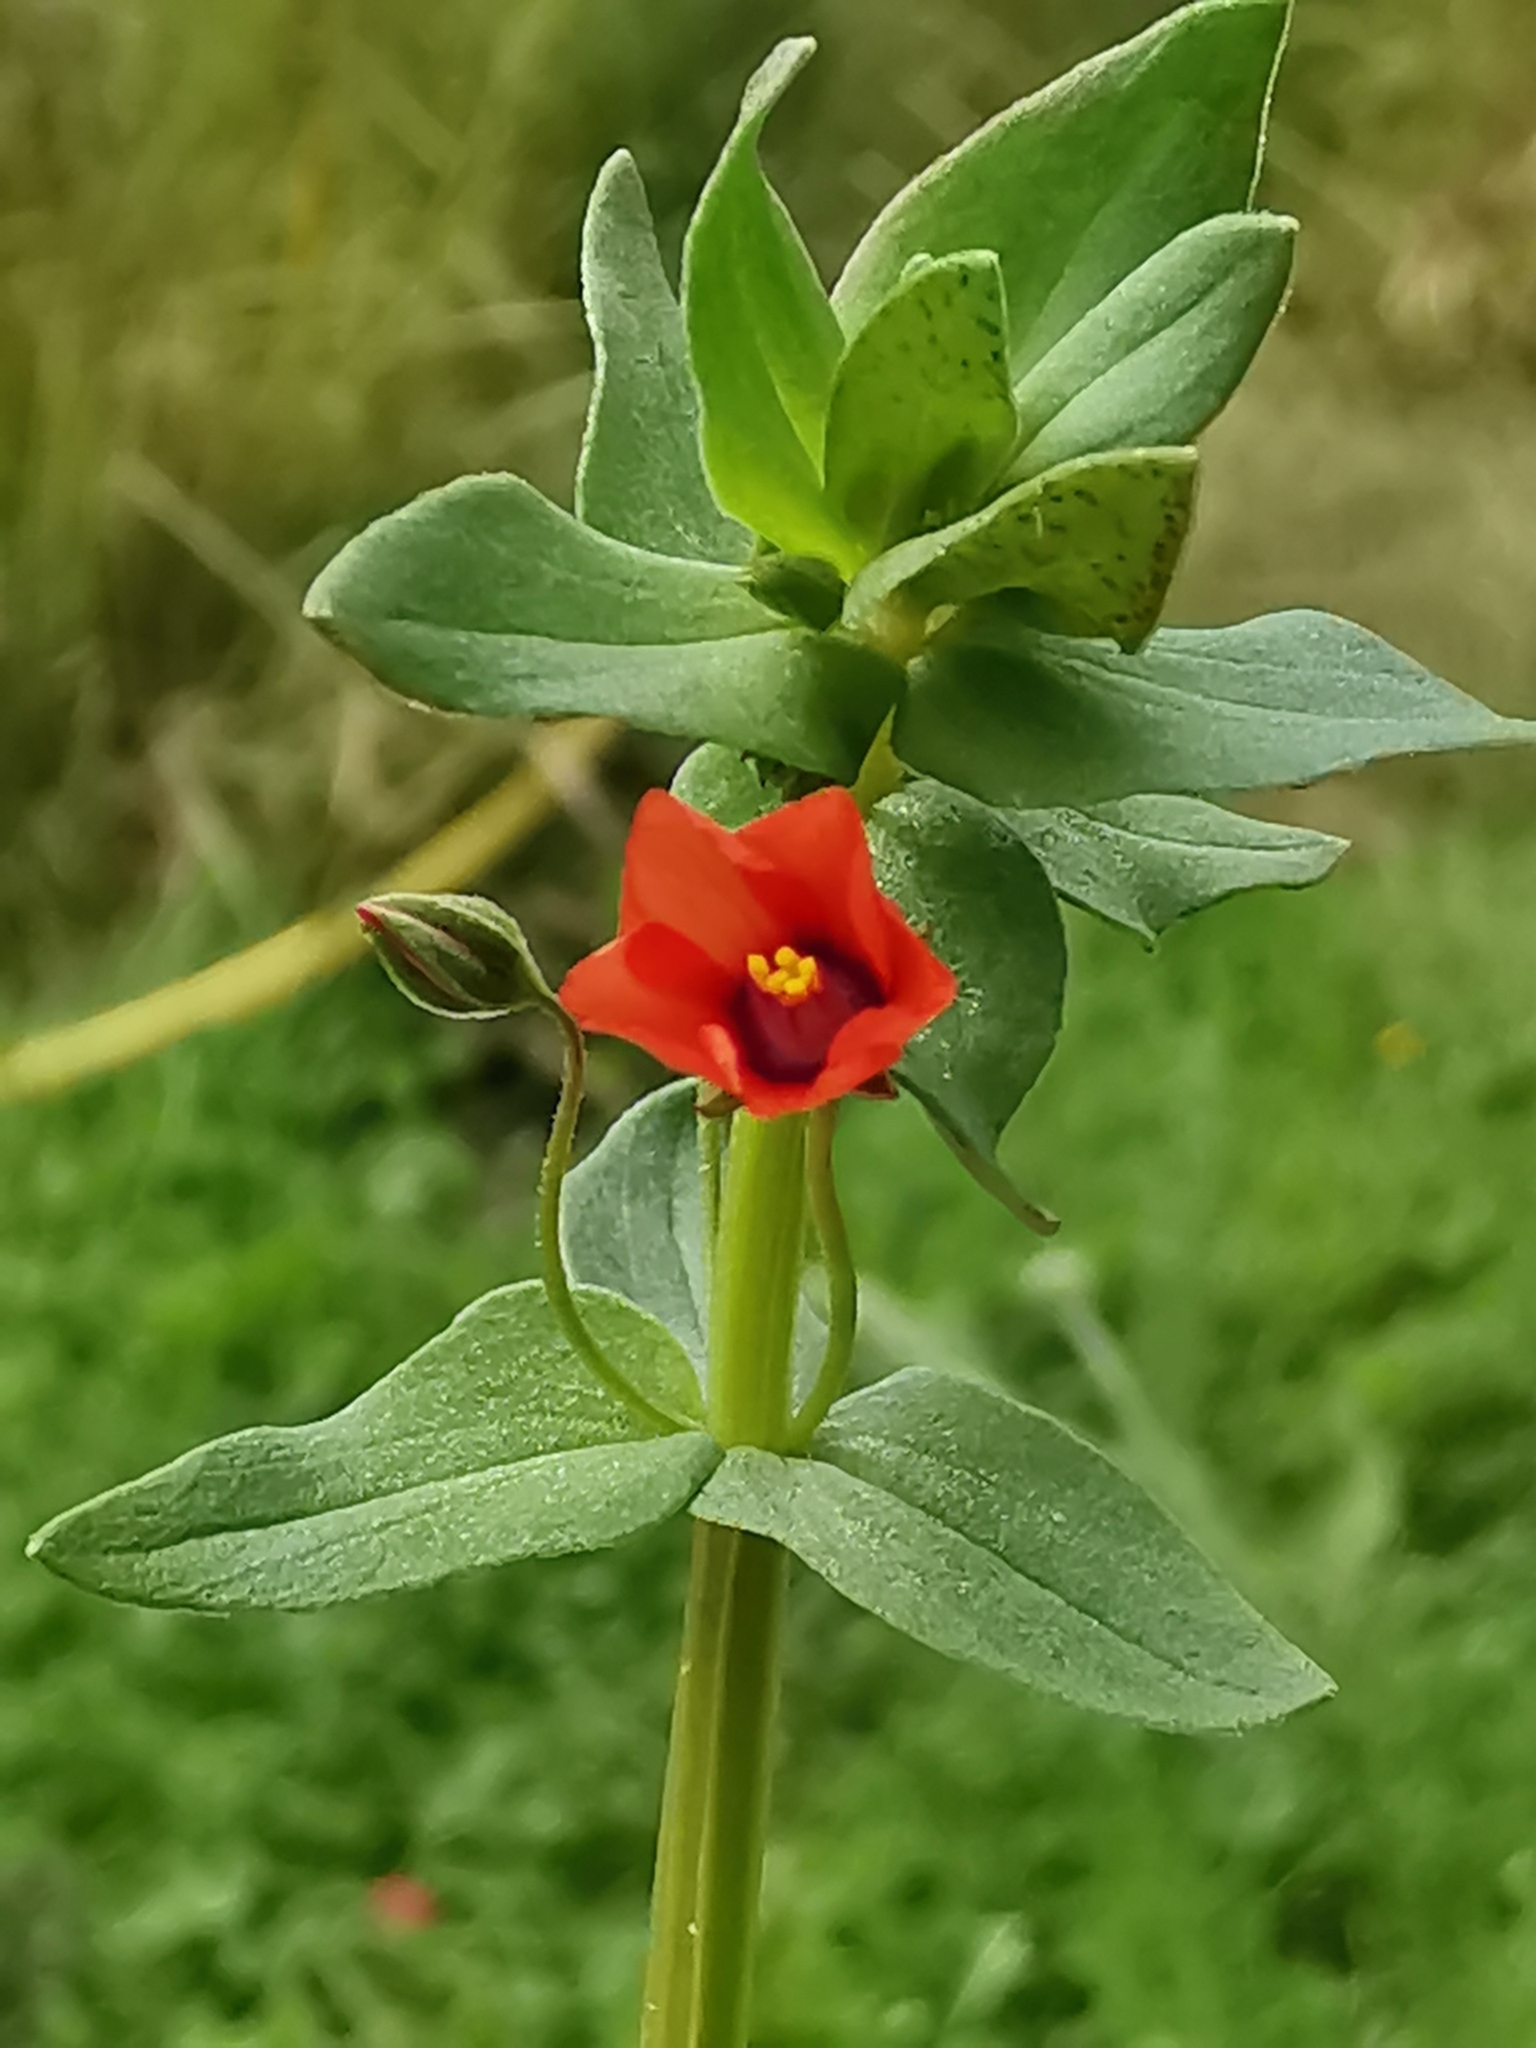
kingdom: Plantae
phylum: Tracheophyta
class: Magnoliopsida
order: Ericales
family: Primulaceae
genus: Lysimachia
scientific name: Lysimachia arvensis
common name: Scarlet pimpernel
